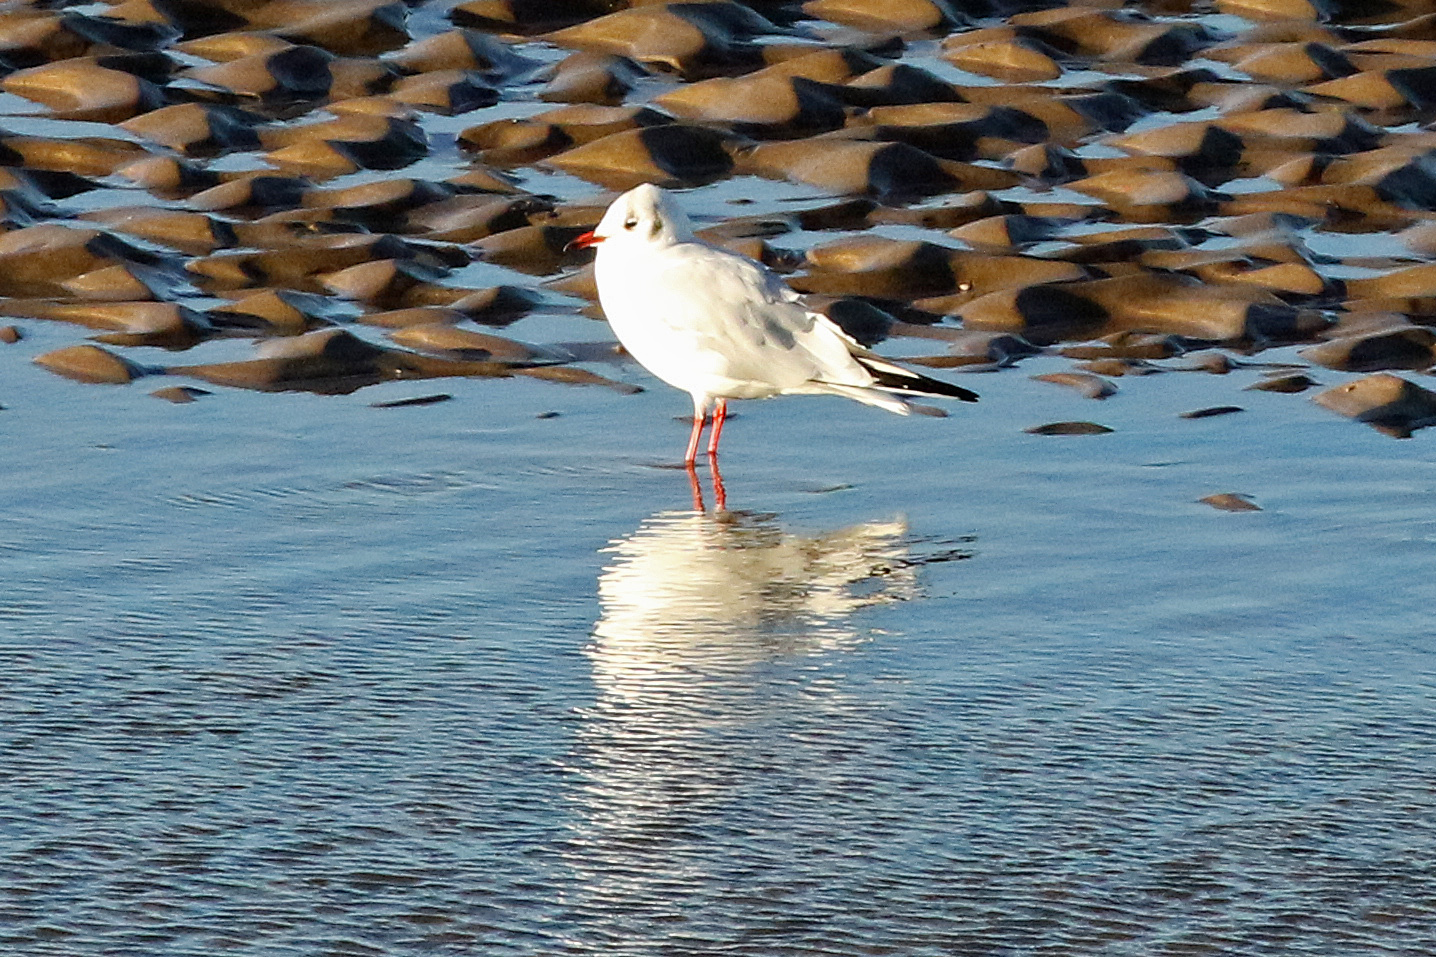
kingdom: Animalia
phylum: Chordata
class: Aves
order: Charadriiformes
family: Laridae
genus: Chroicocephalus
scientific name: Chroicocephalus ridibundus
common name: Black-headed gull
